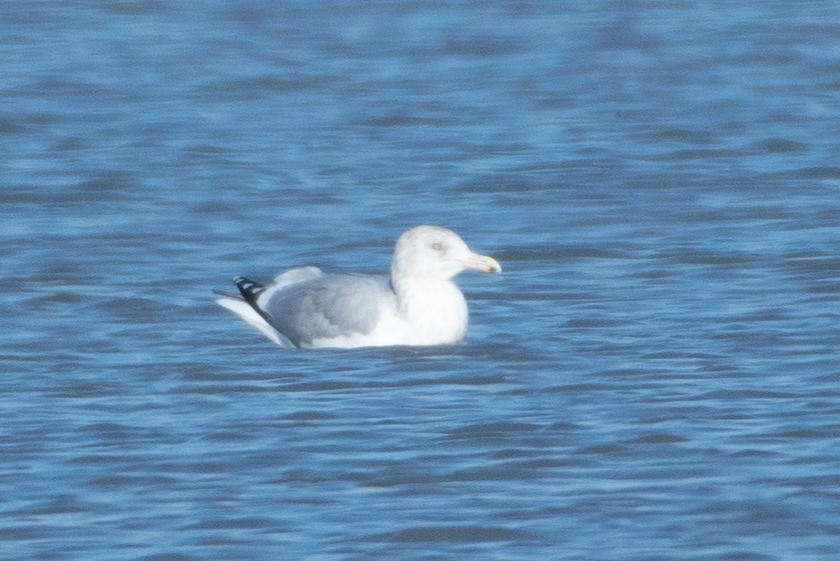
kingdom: Animalia
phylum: Chordata
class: Aves
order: Charadriiformes
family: Laridae
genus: Larus
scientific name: Larus argentatus
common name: Herring gull
